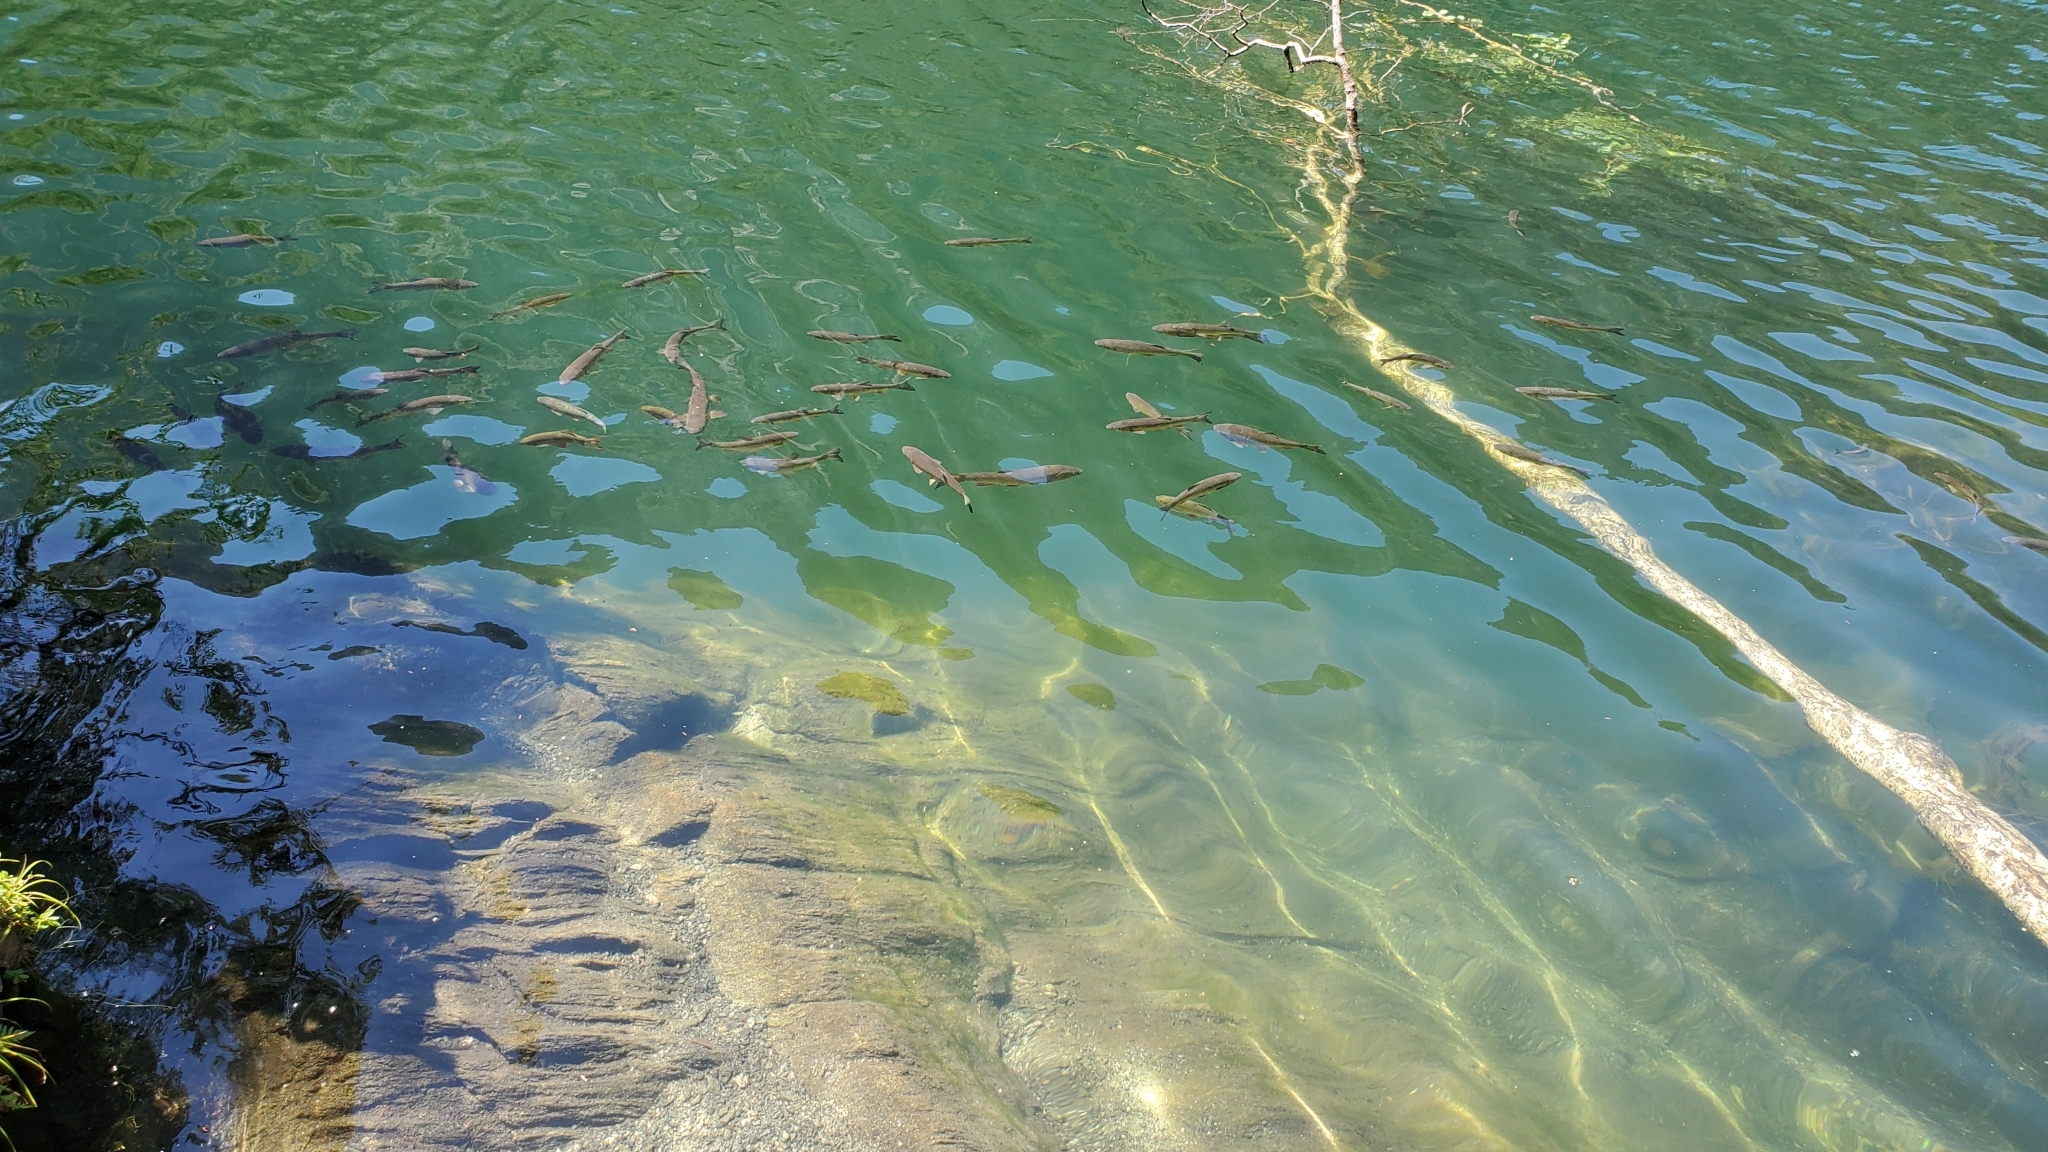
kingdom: Animalia
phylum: Chordata
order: Cypriniformes
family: Cyprinidae
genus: Squalius
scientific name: Squalius cephalus
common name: Chub
